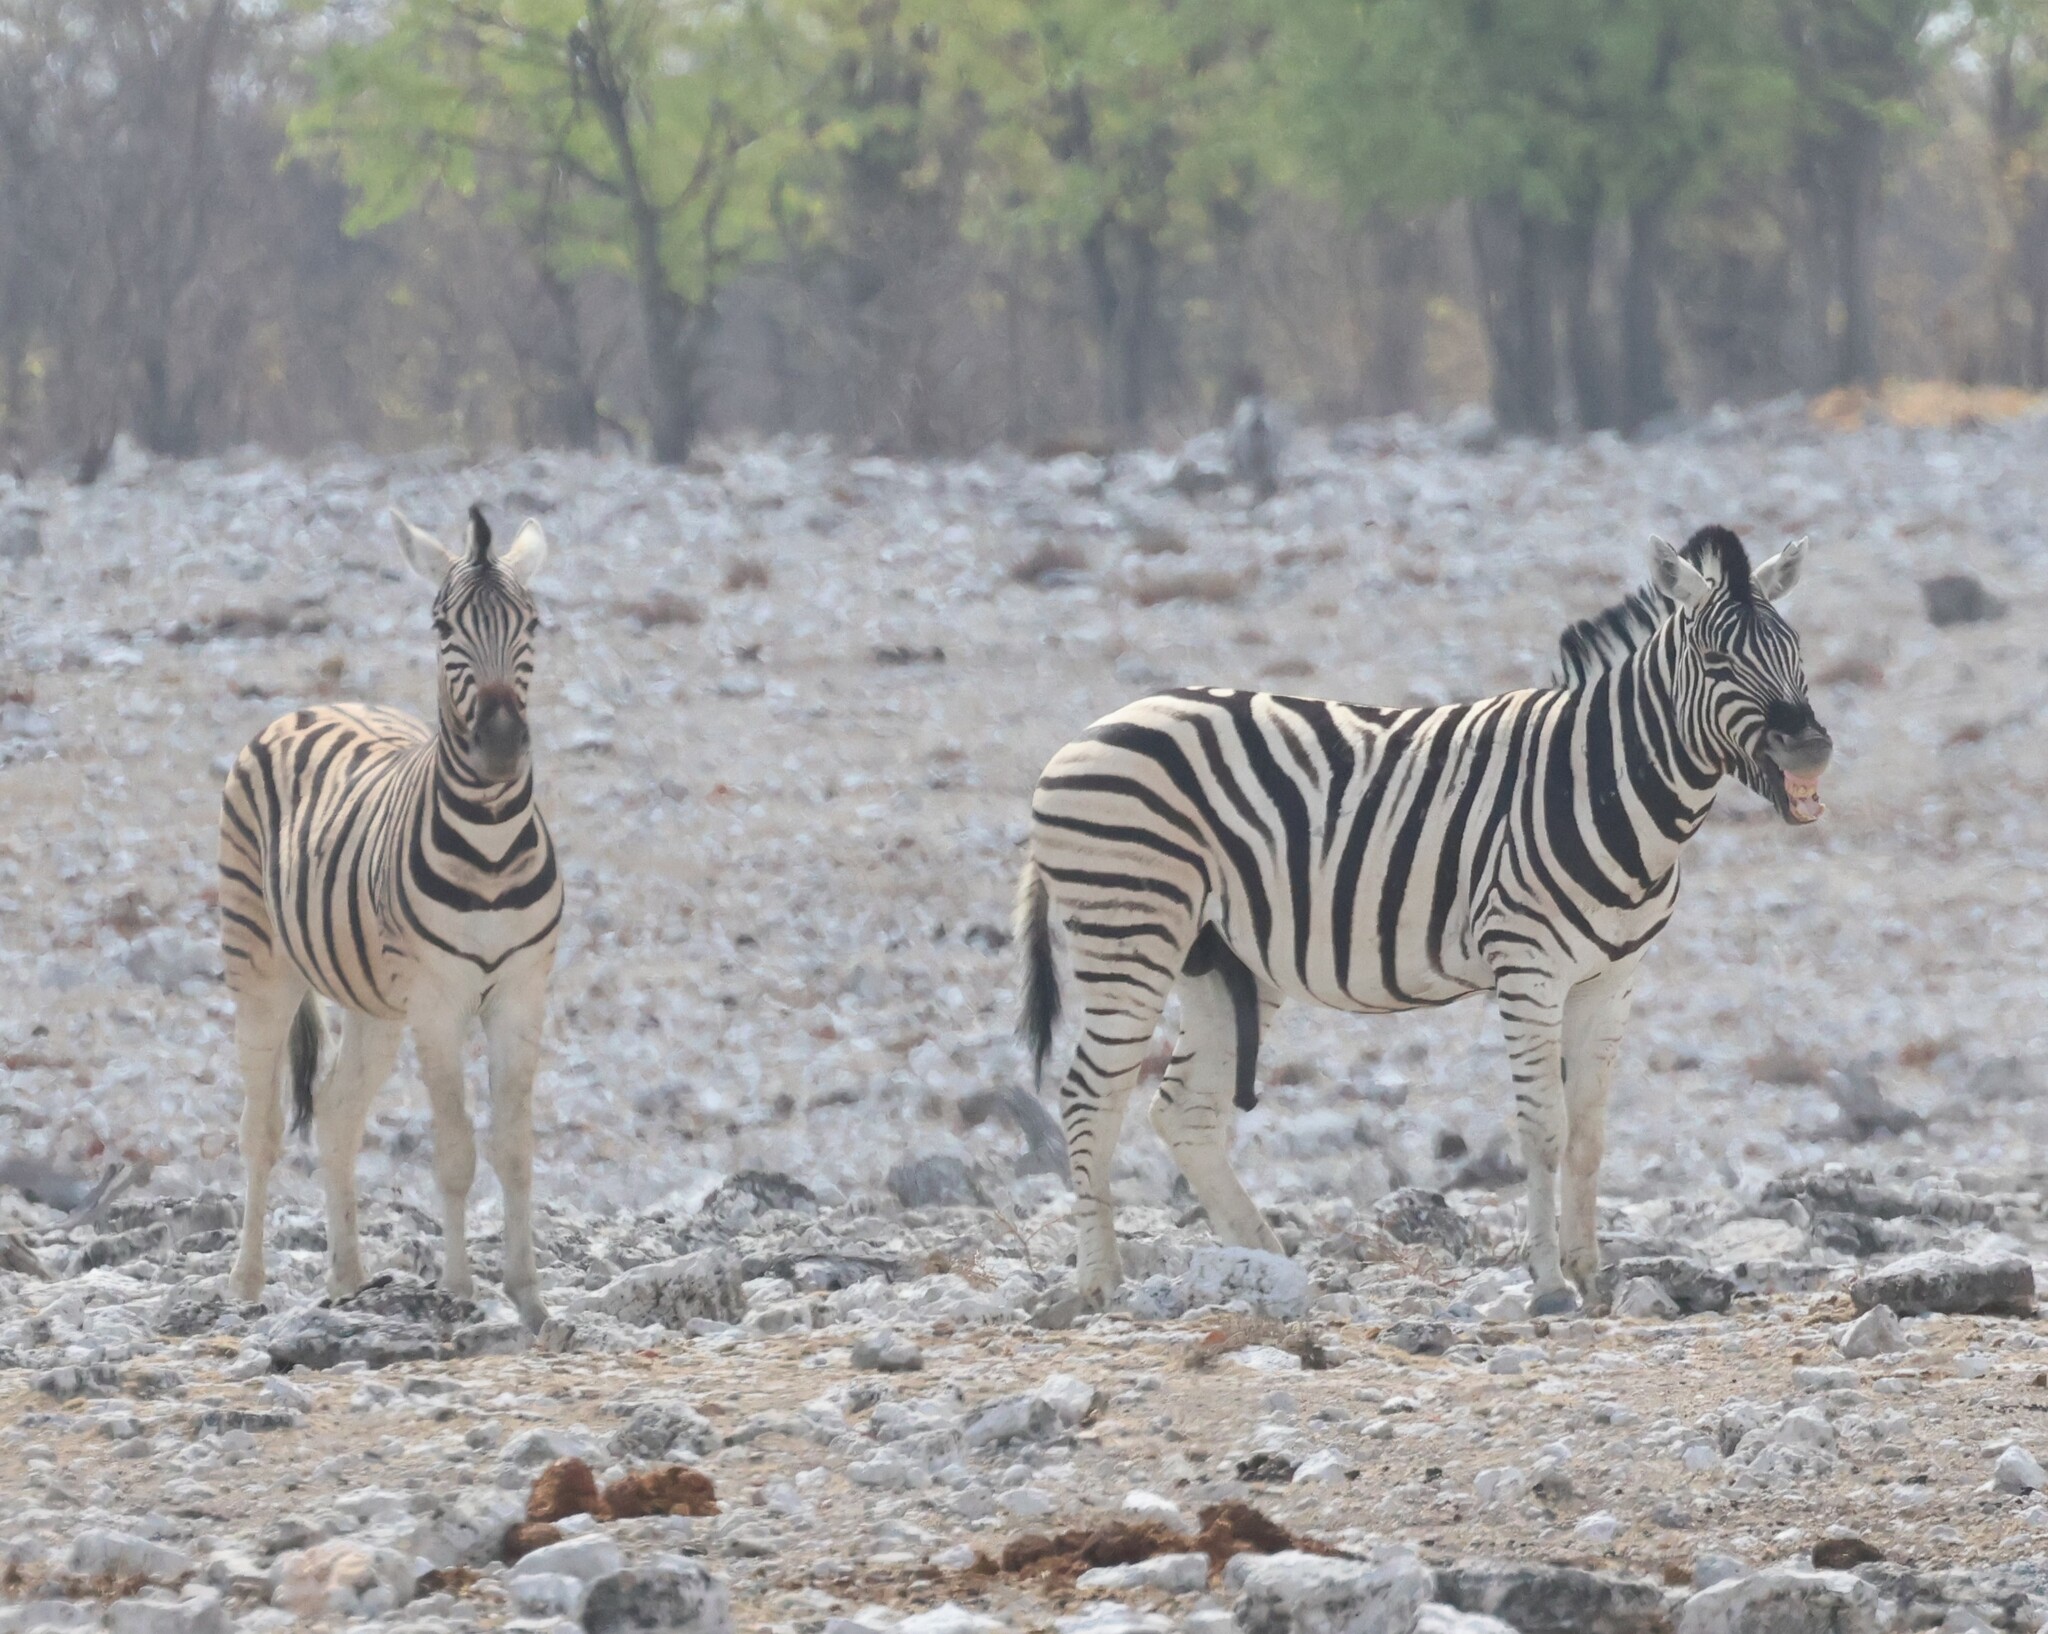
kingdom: Animalia
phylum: Chordata
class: Mammalia
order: Perissodactyla
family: Equidae
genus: Equus
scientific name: Equus quagga
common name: Plains zebra
